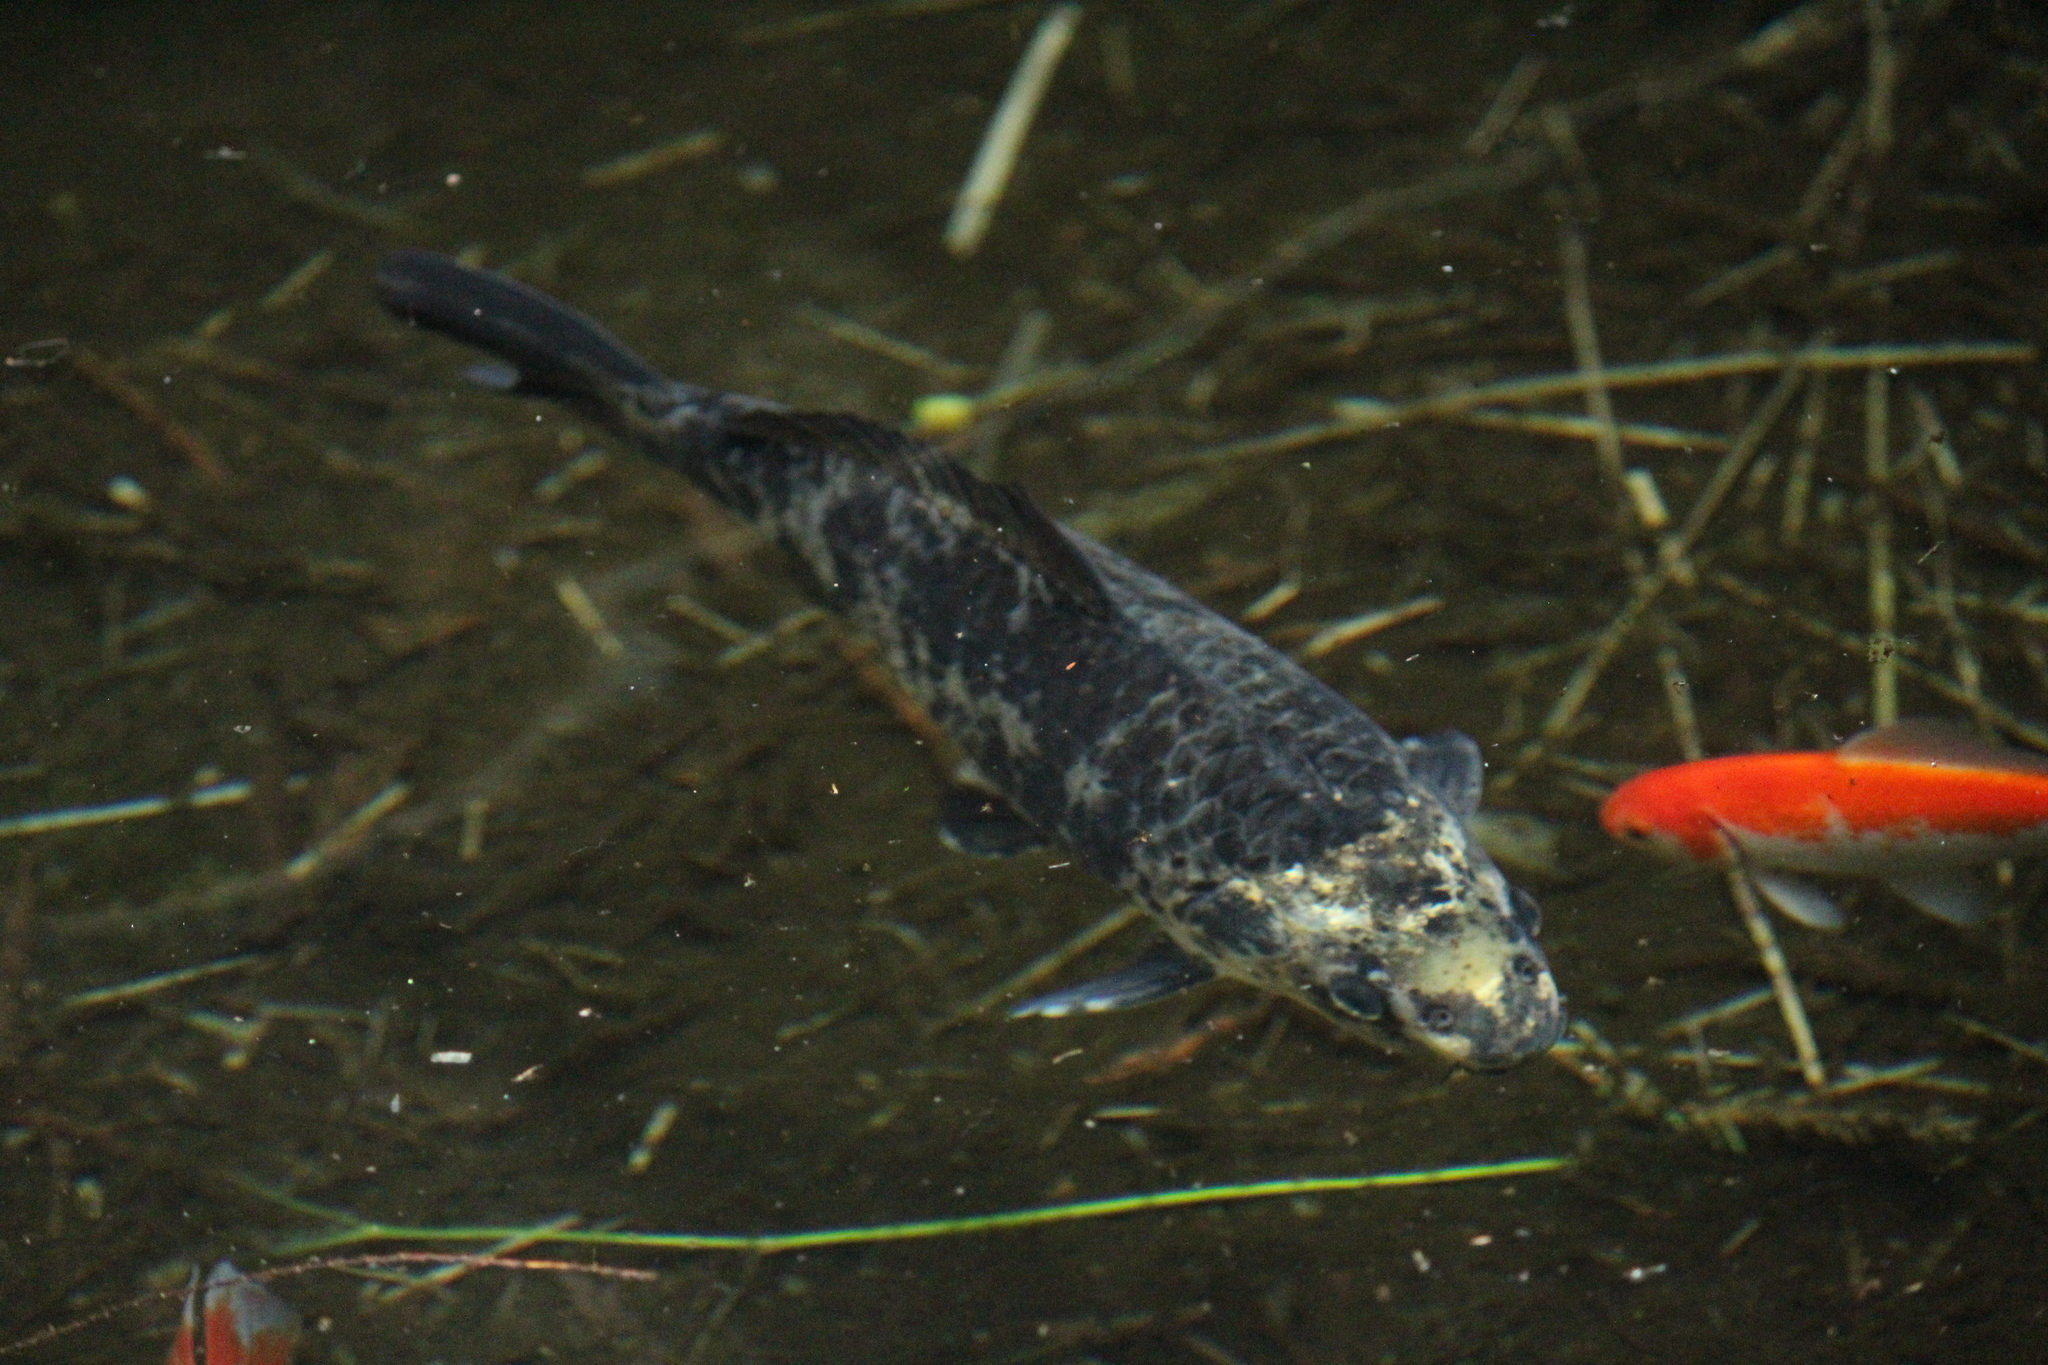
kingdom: Animalia
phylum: Chordata
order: Cypriniformes
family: Cyprinidae
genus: Cyprinus
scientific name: Cyprinus rubrofuscus
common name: Koi
